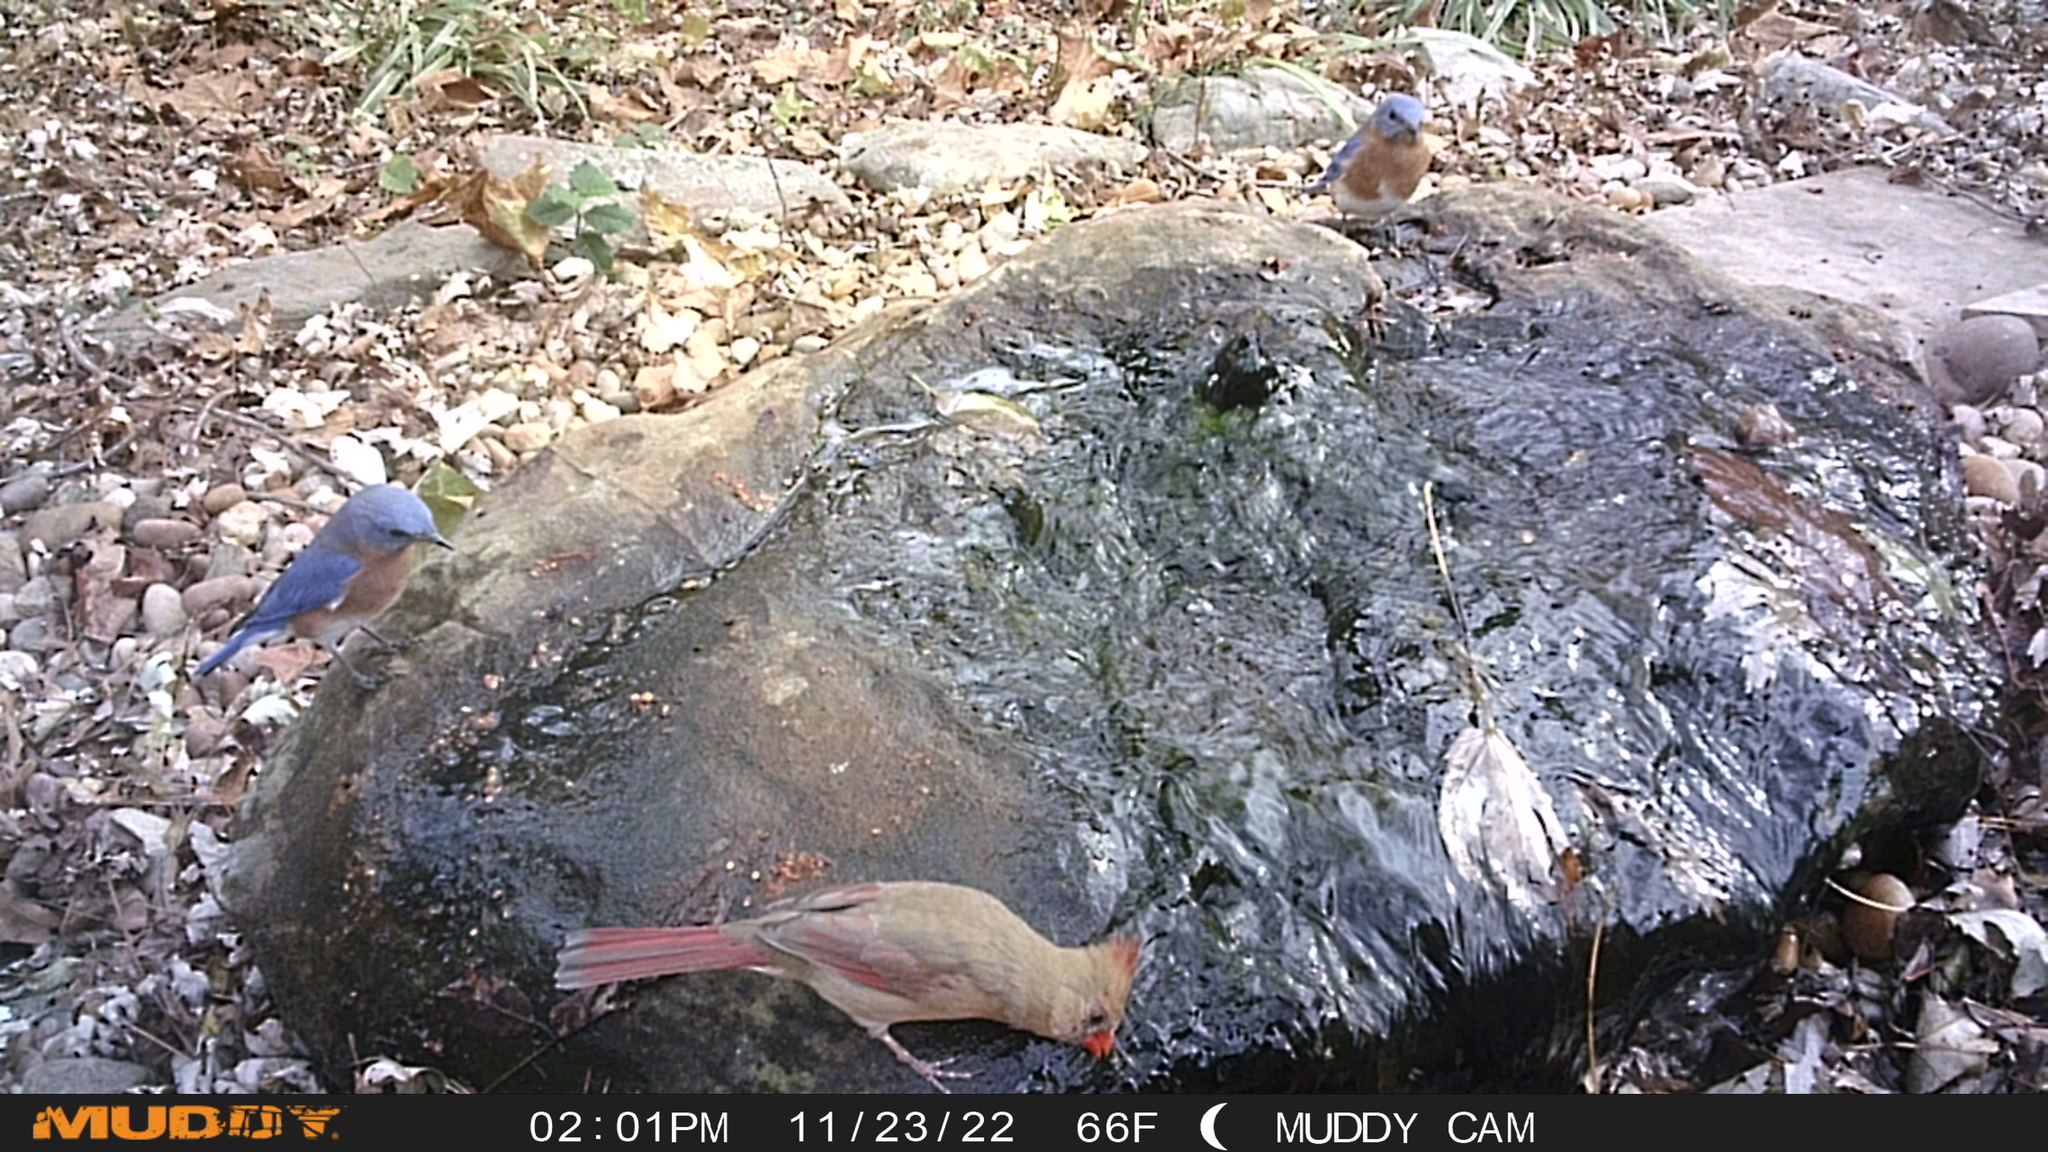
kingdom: Animalia
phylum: Chordata
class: Aves
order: Passeriformes
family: Turdidae
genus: Sialia
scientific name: Sialia sialis
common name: Eastern bluebird
